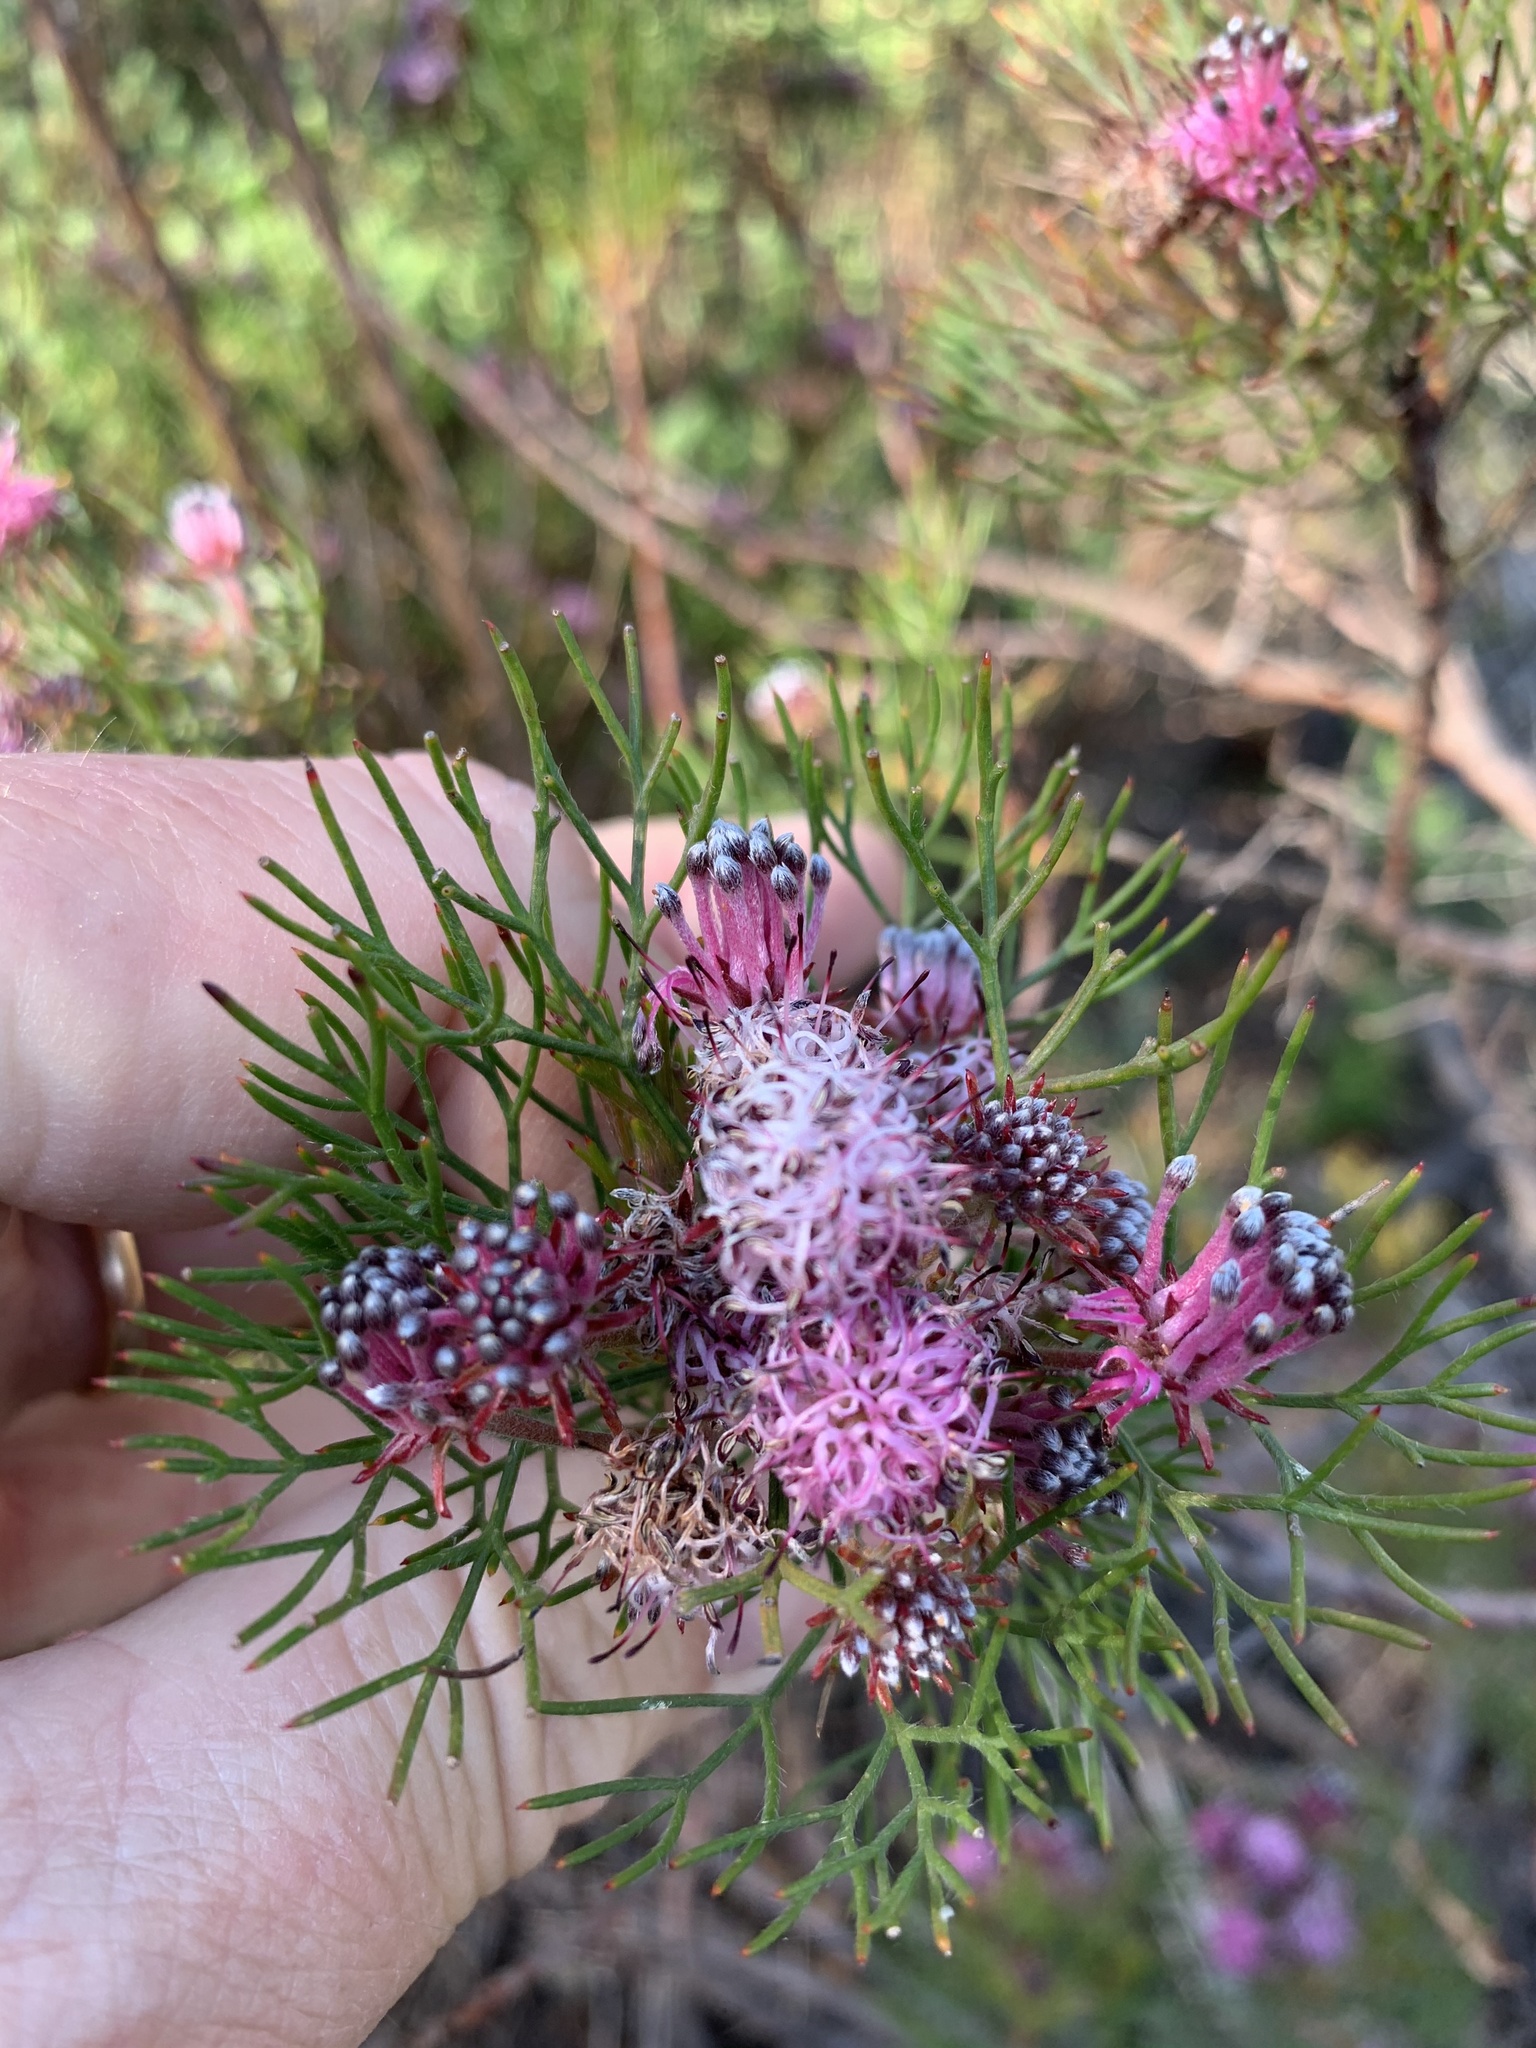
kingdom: Plantae
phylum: Tracheophyta
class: Magnoliopsida
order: Proteales
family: Proteaceae
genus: Serruria
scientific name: Serruria fasciflora
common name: Common pin spiderhead
